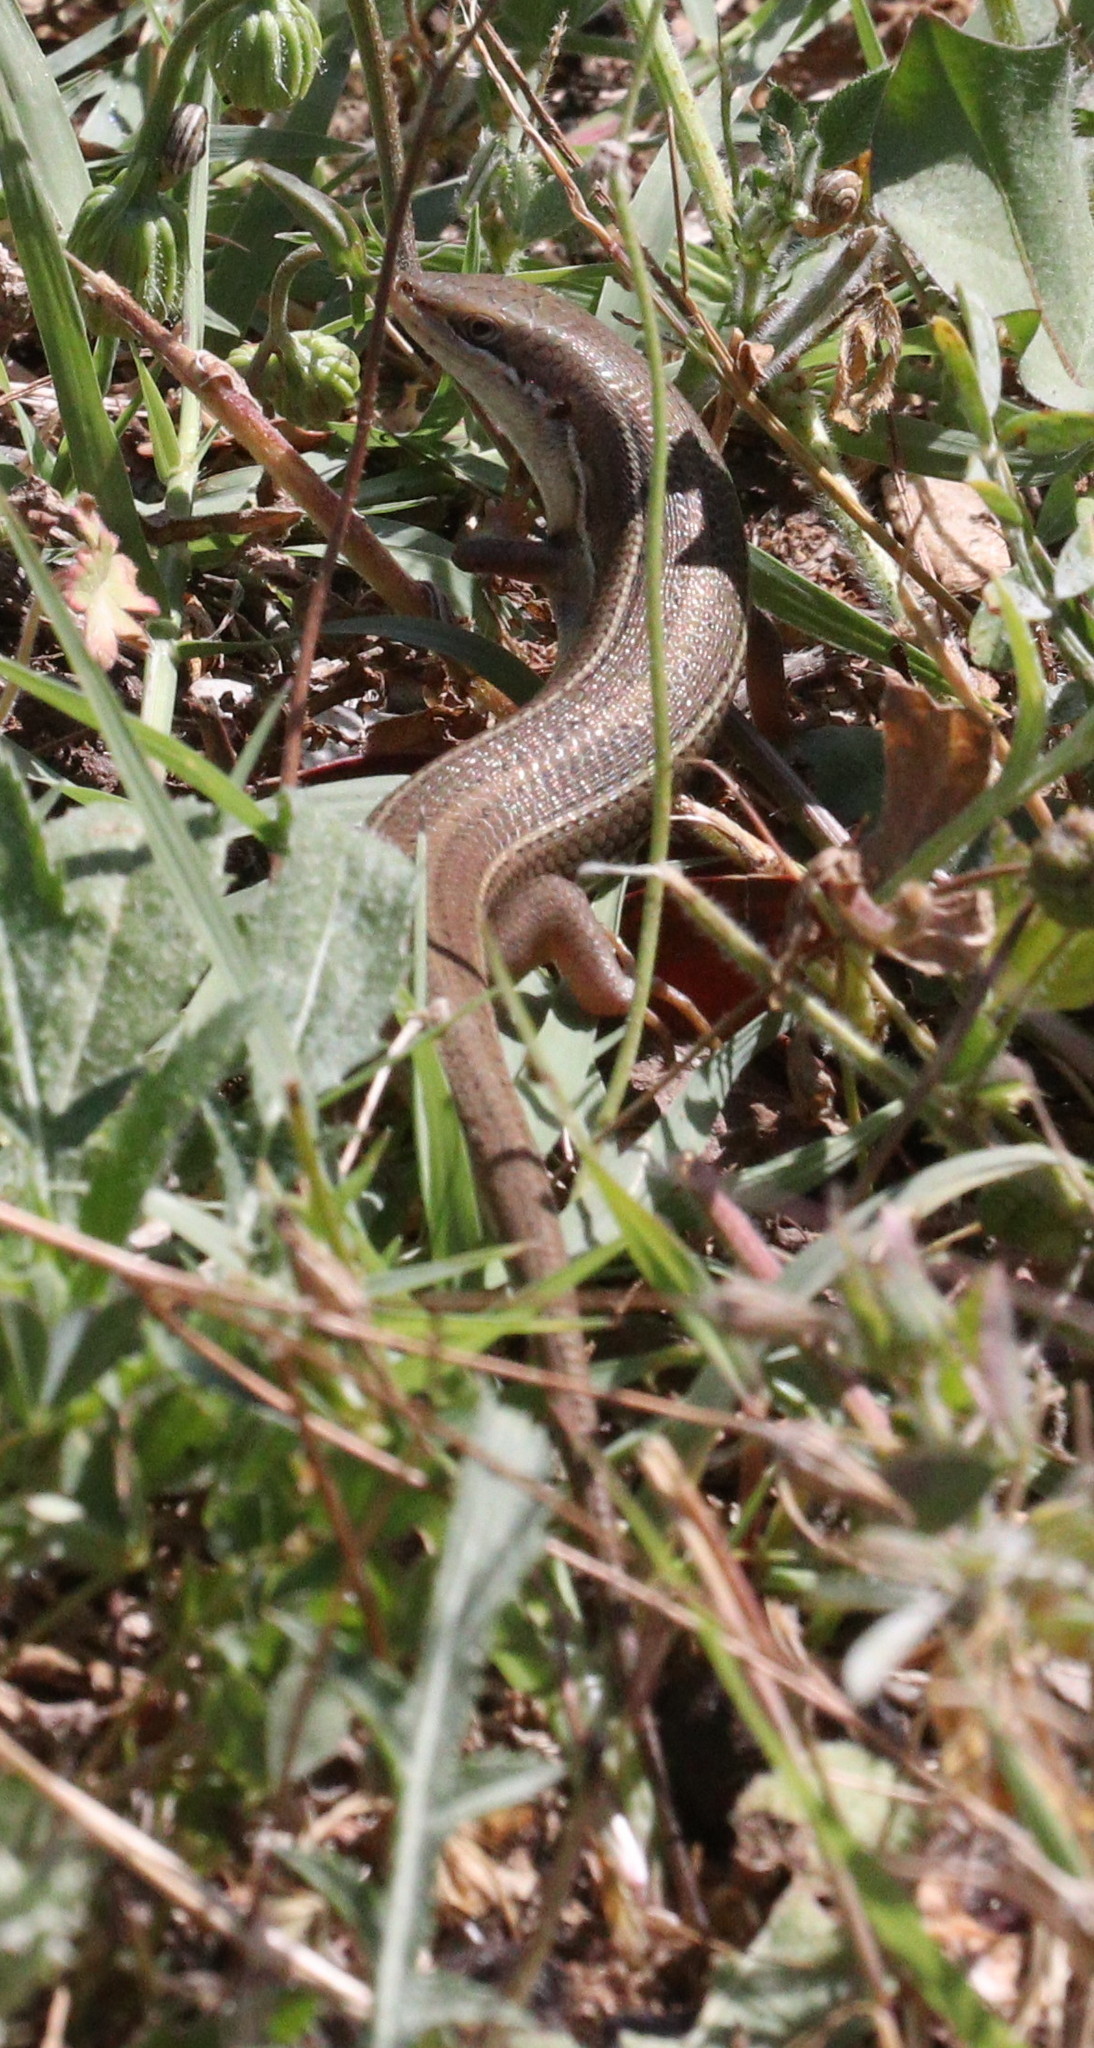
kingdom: Animalia
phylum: Chordata
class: Squamata
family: Scincidae
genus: Heremites
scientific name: Heremites vittatus
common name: Bridled mabuya
